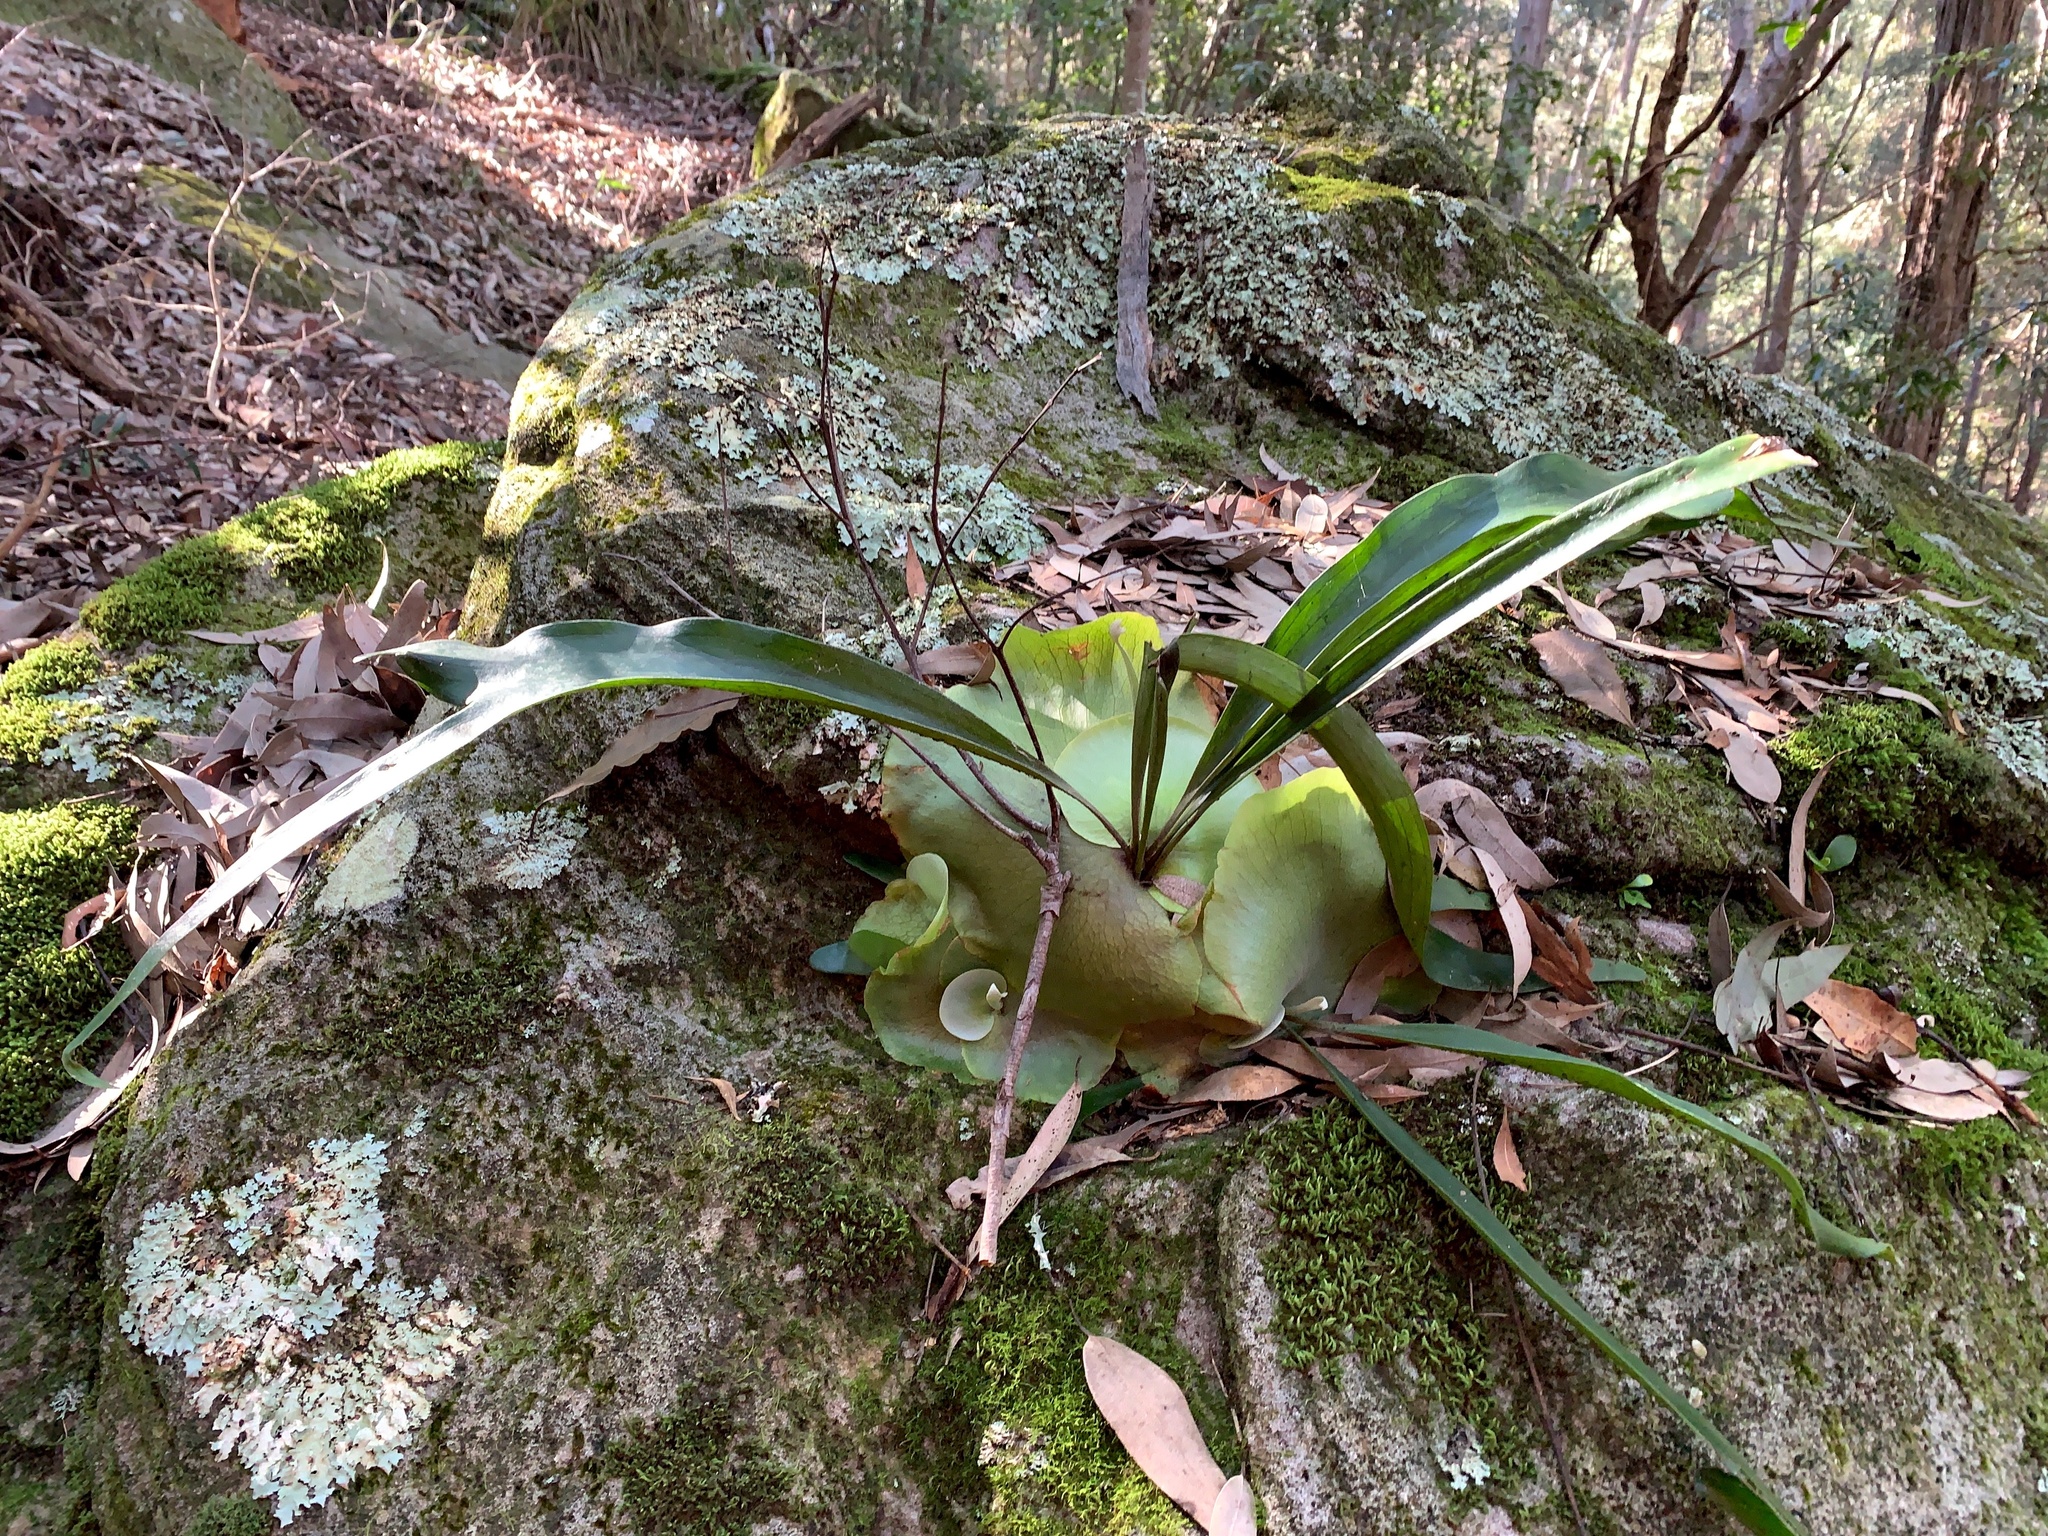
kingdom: Plantae
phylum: Tracheophyta
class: Polypodiopsida
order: Polypodiales
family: Polypodiaceae
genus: Platycerium
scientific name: Platycerium bifurcatum
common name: Elkhorn fern
